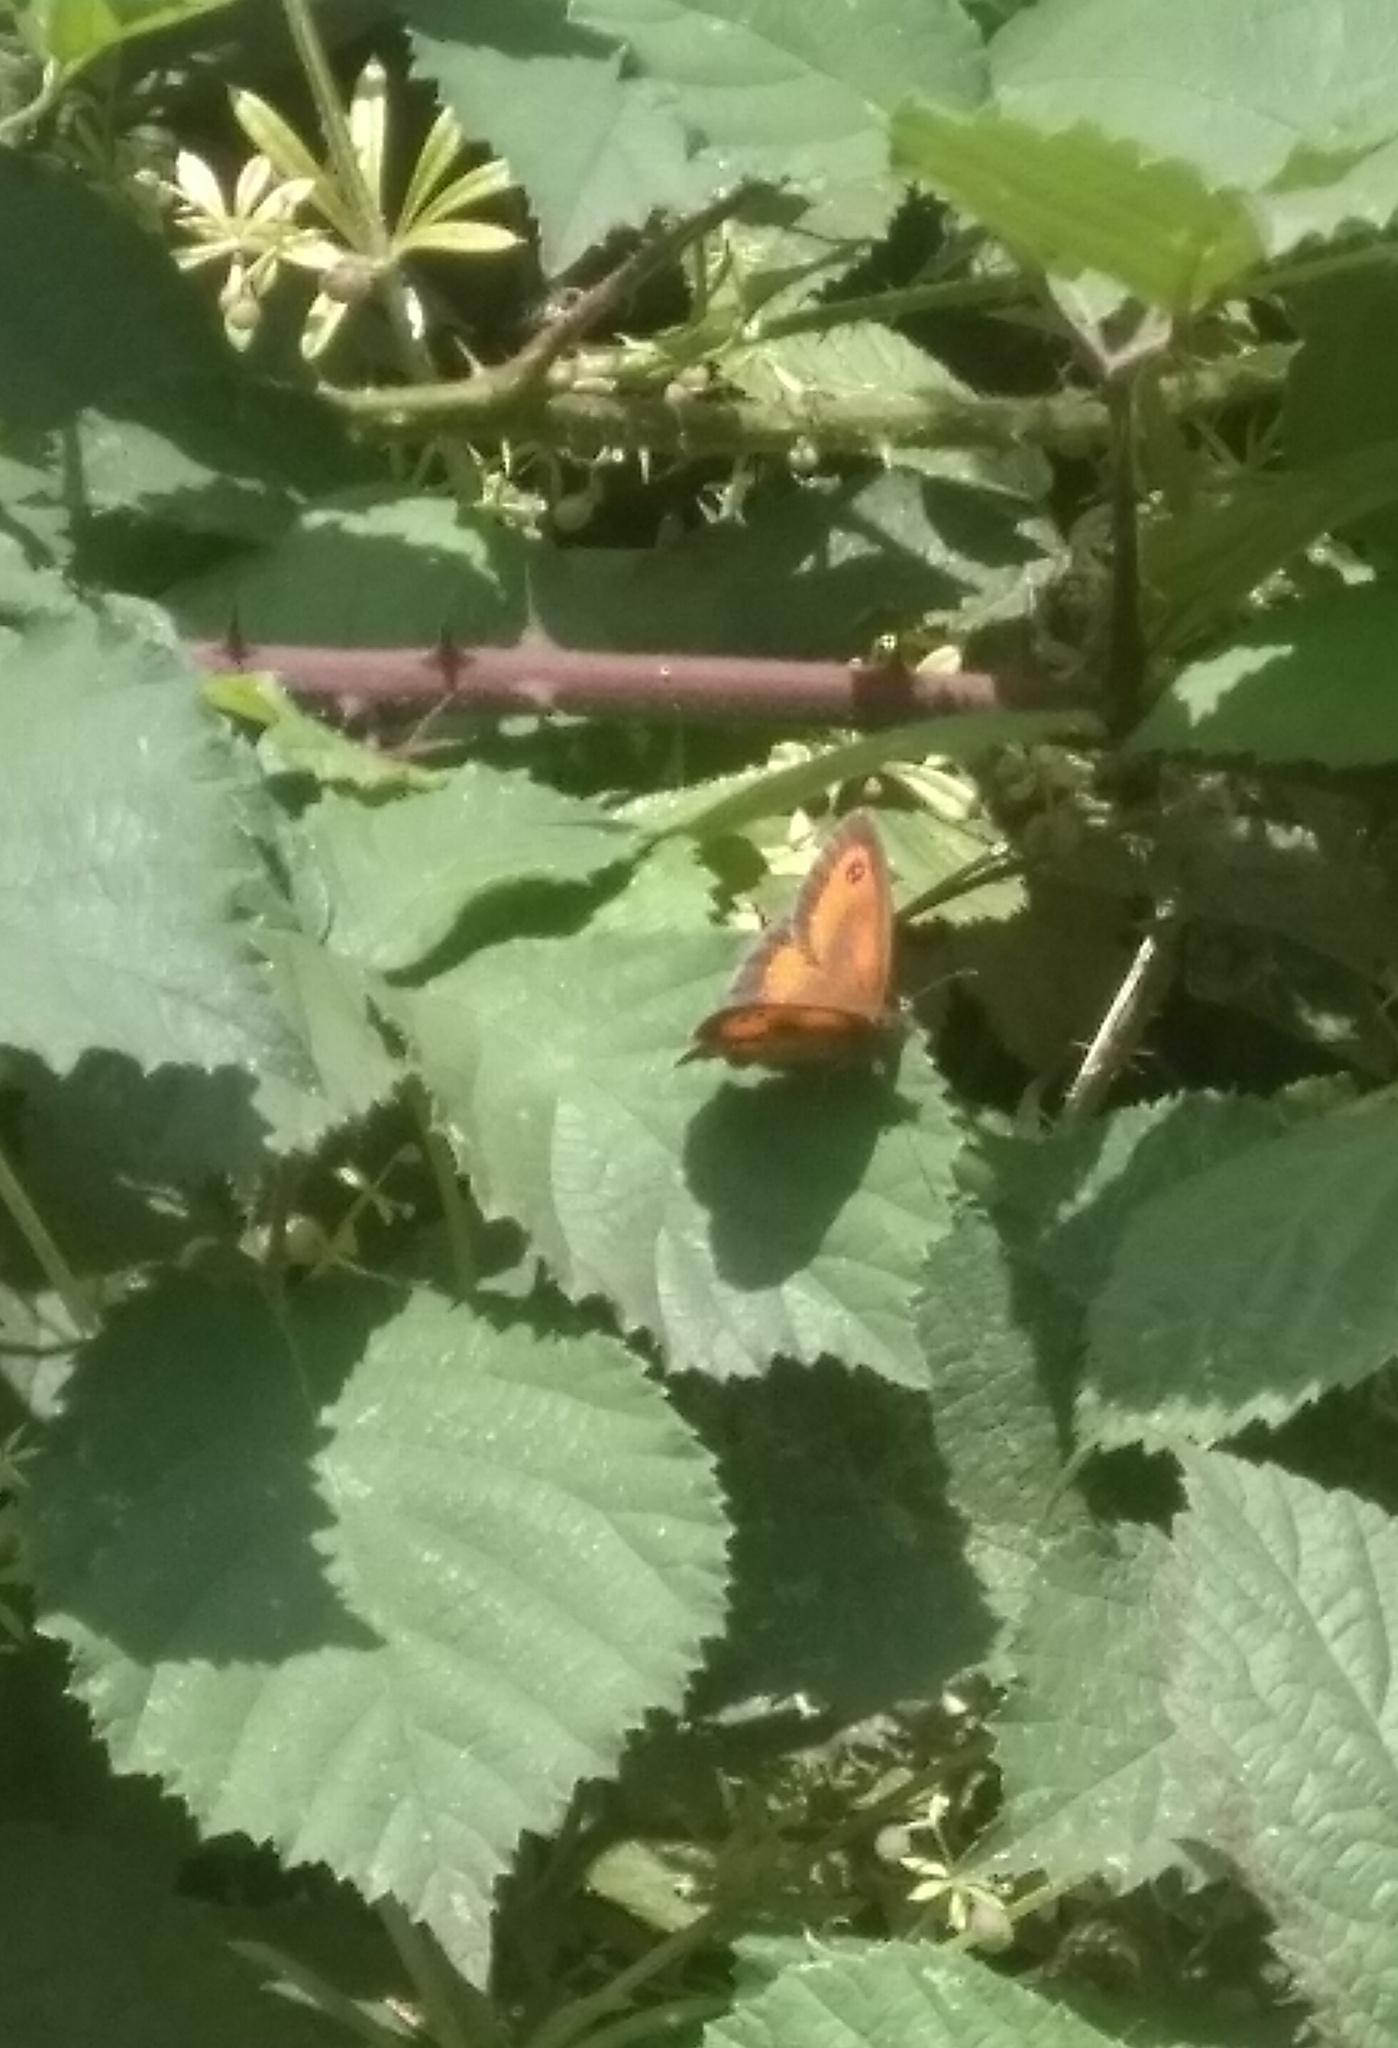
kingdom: Animalia
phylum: Arthropoda
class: Insecta
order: Lepidoptera
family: Nymphalidae
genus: Pyronia
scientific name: Pyronia tithonus
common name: Gatekeeper
